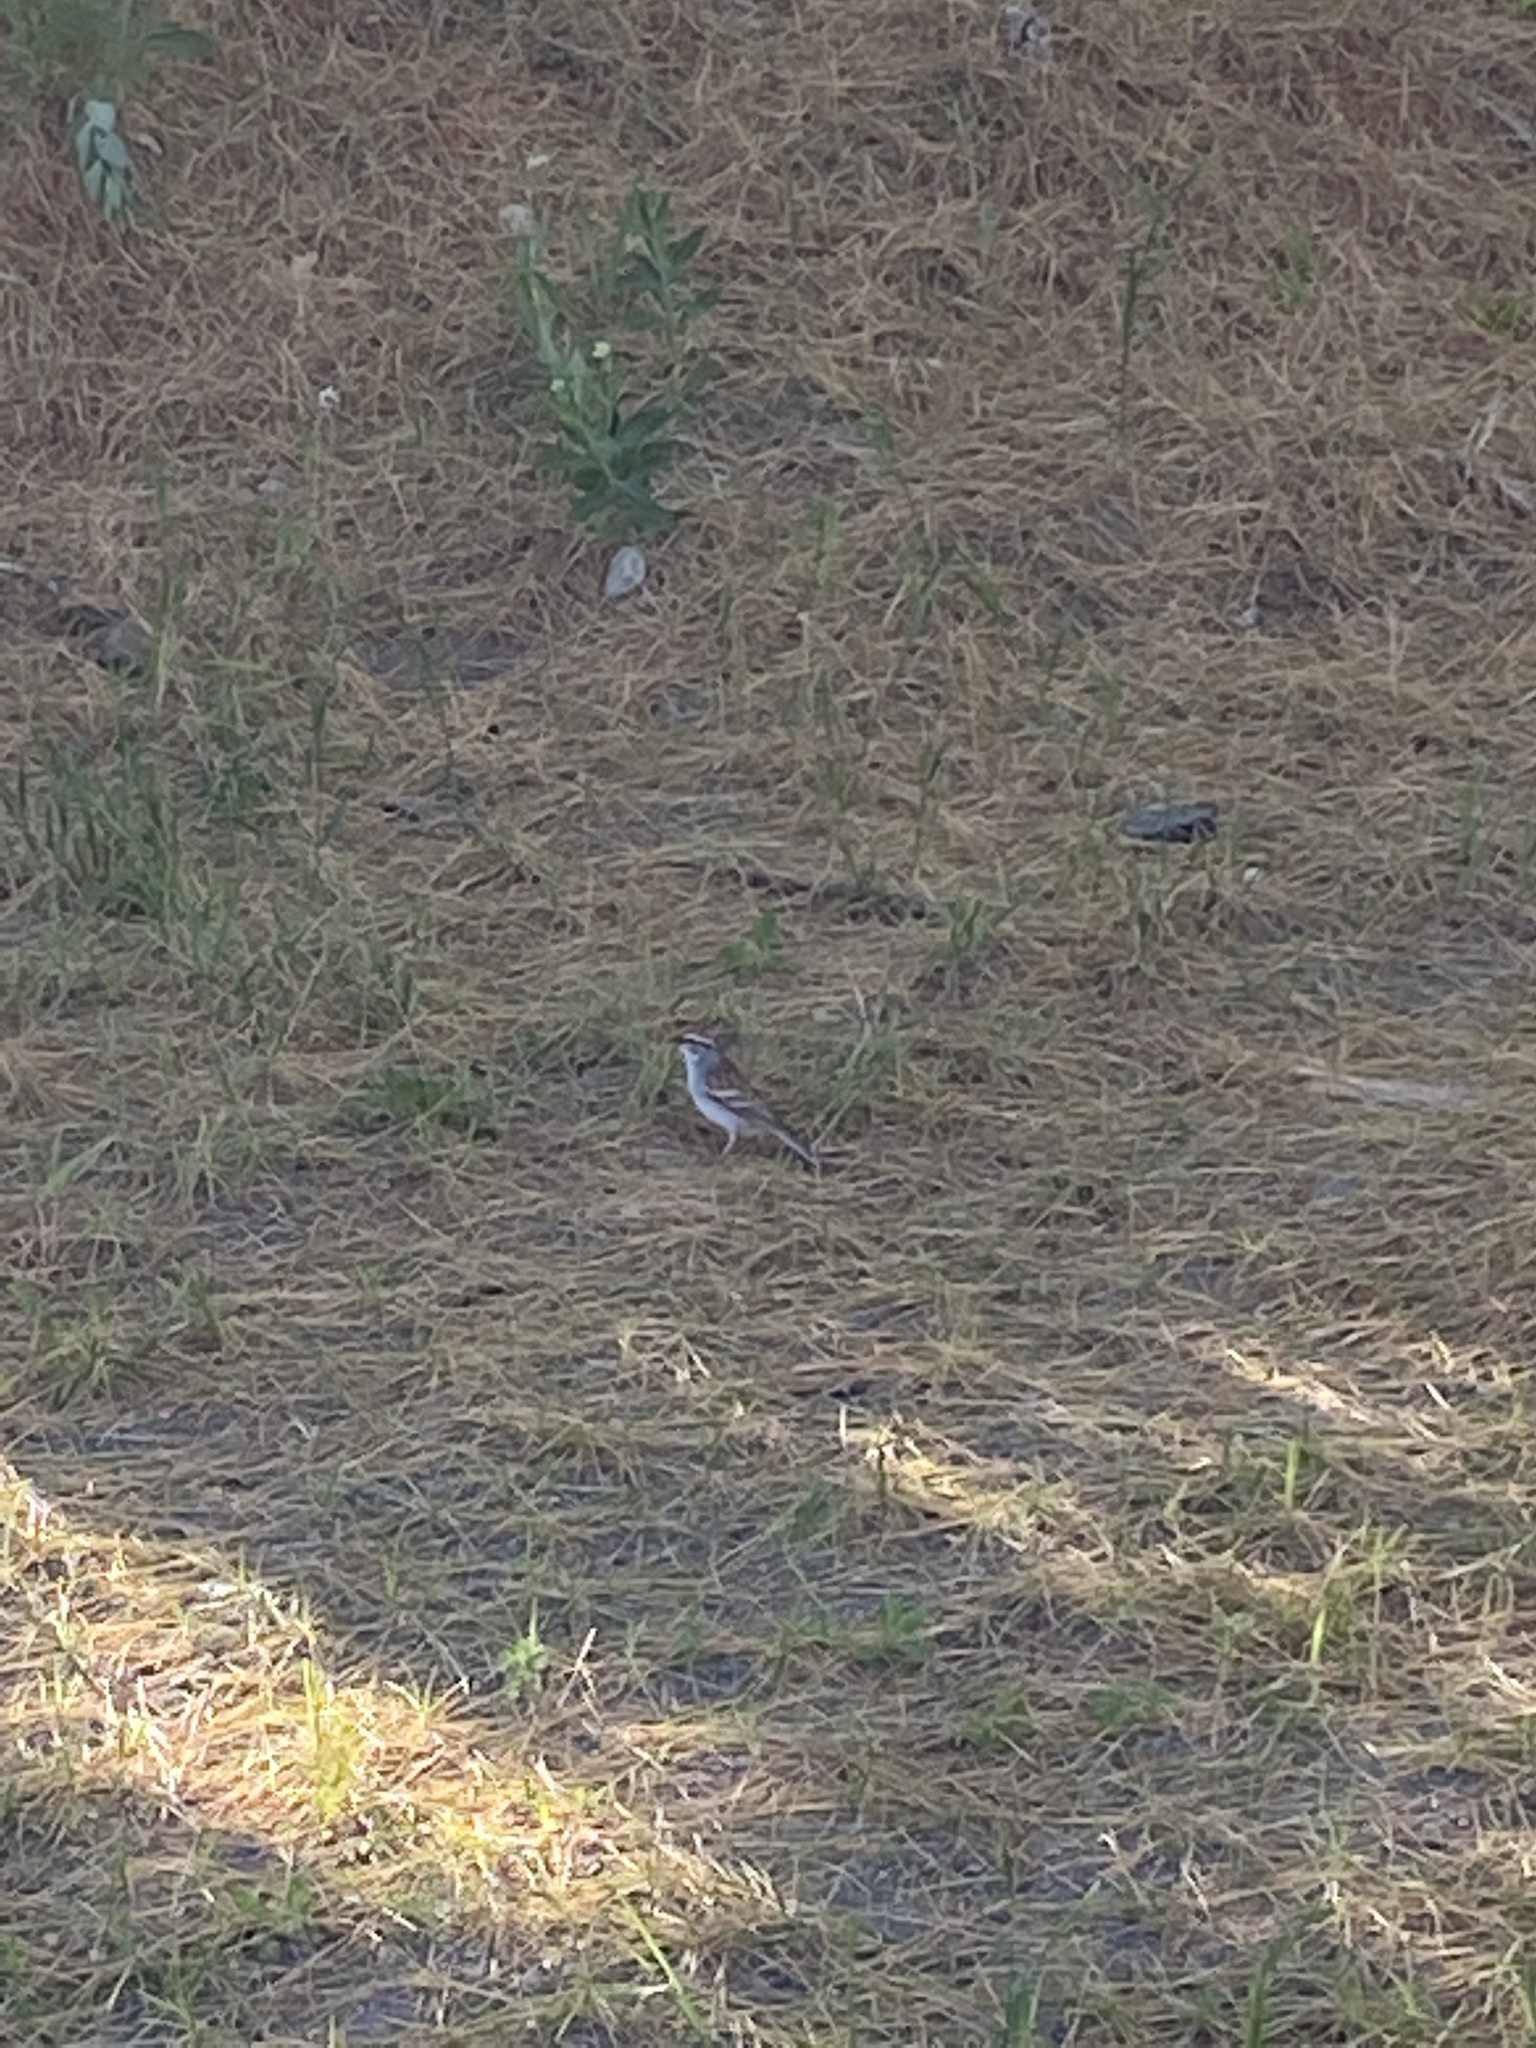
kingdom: Animalia
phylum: Chordata
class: Aves
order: Passeriformes
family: Passerellidae
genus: Spizella
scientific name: Spizella passerina
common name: Chipping sparrow
